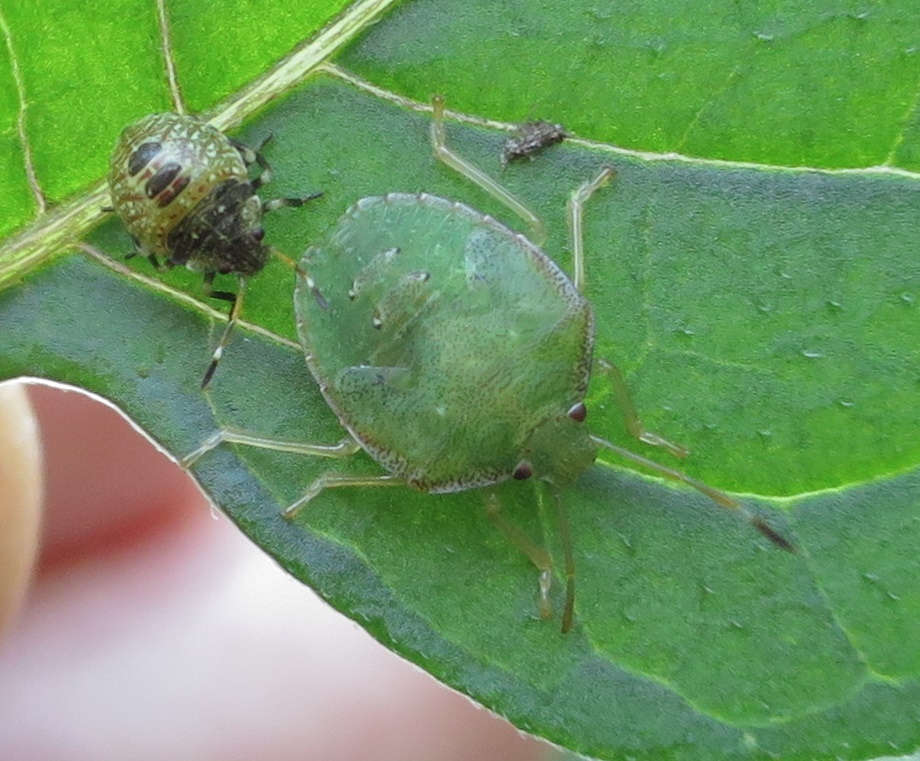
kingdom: Animalia
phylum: Arthropoda
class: Insecta
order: Hemiptera
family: Pentatomidae
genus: Cuspicona
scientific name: Cuspicona simplex
